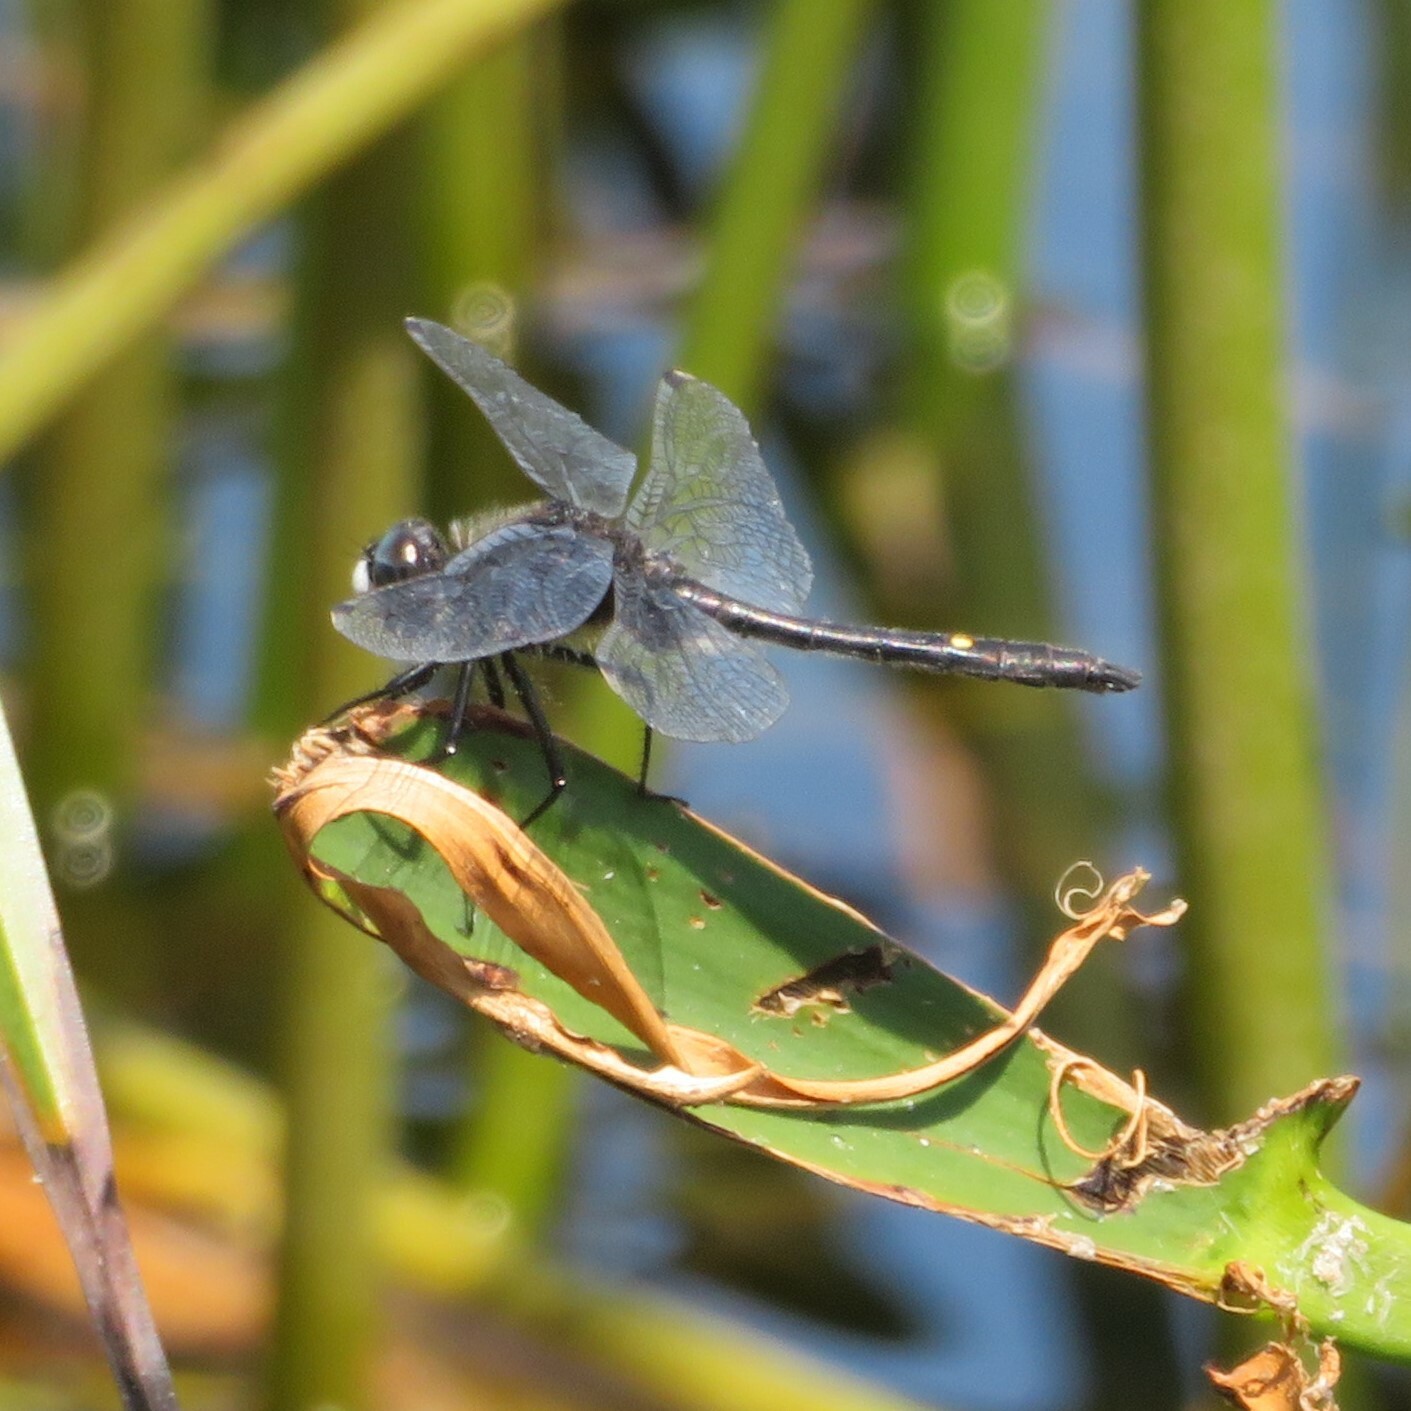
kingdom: Animalia
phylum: Arthropoda
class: Insecta
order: Odonata
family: Libellulidae
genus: Leucorrhinia
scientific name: Leucorrhinia intacta
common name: Dot-tailed whiteface
